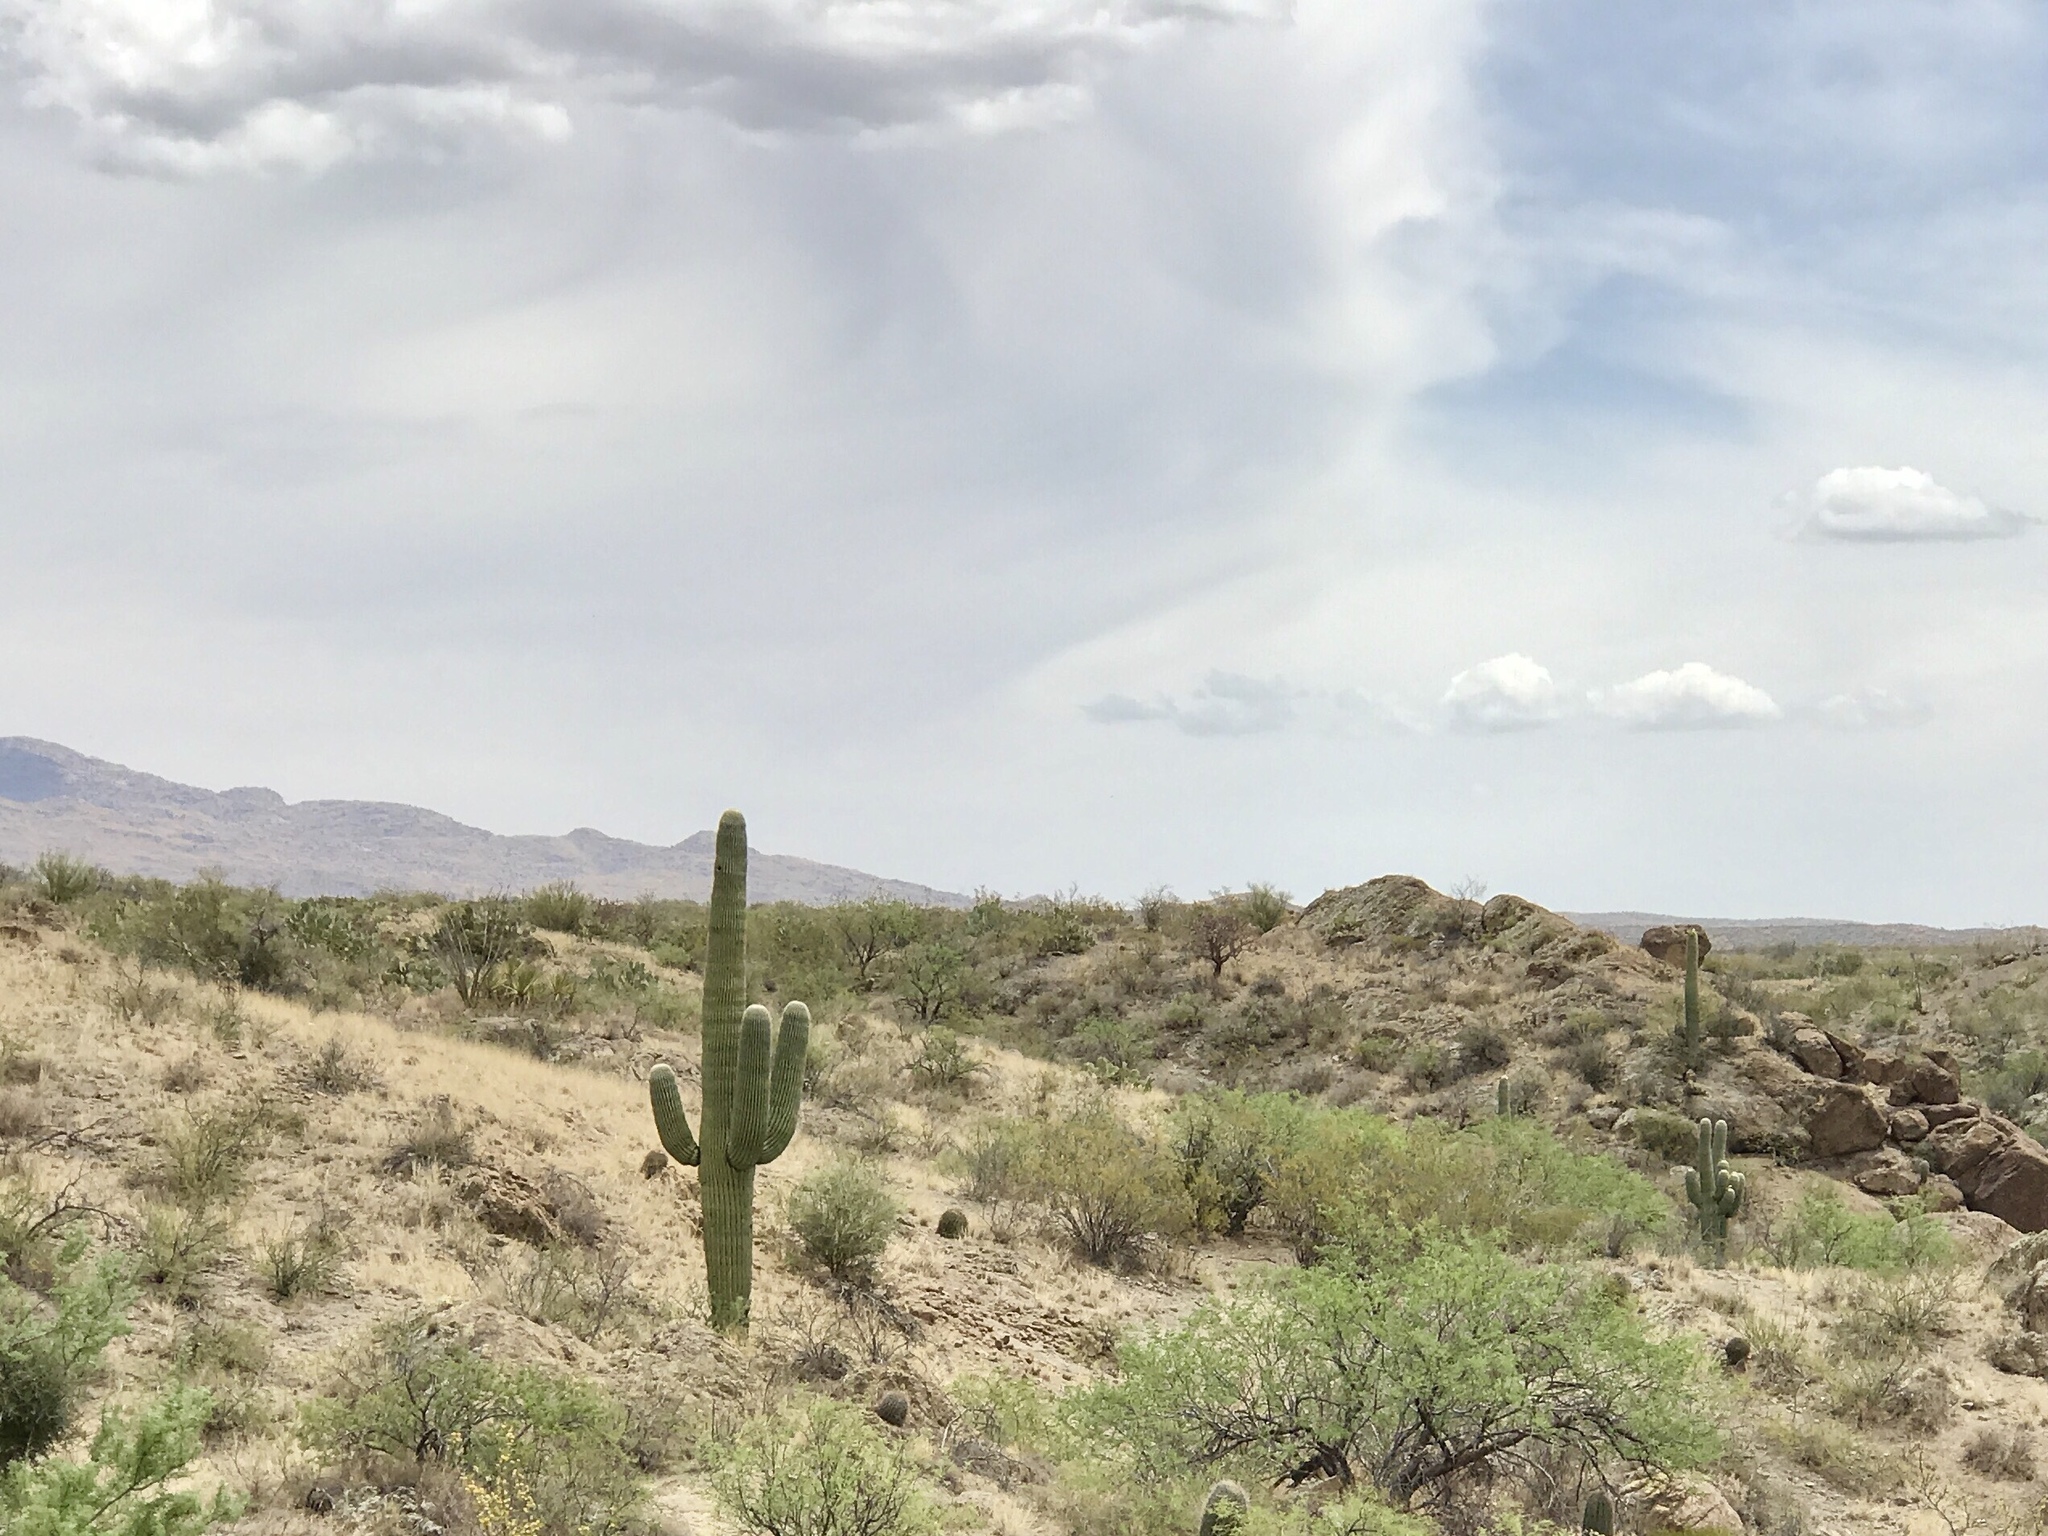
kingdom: Plantae
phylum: Tracheophyta
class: Magnoliopsida
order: Caryophyllales
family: Cactaceae
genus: Carnegiea
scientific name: Carnegiea gigantea
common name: Saguaro
